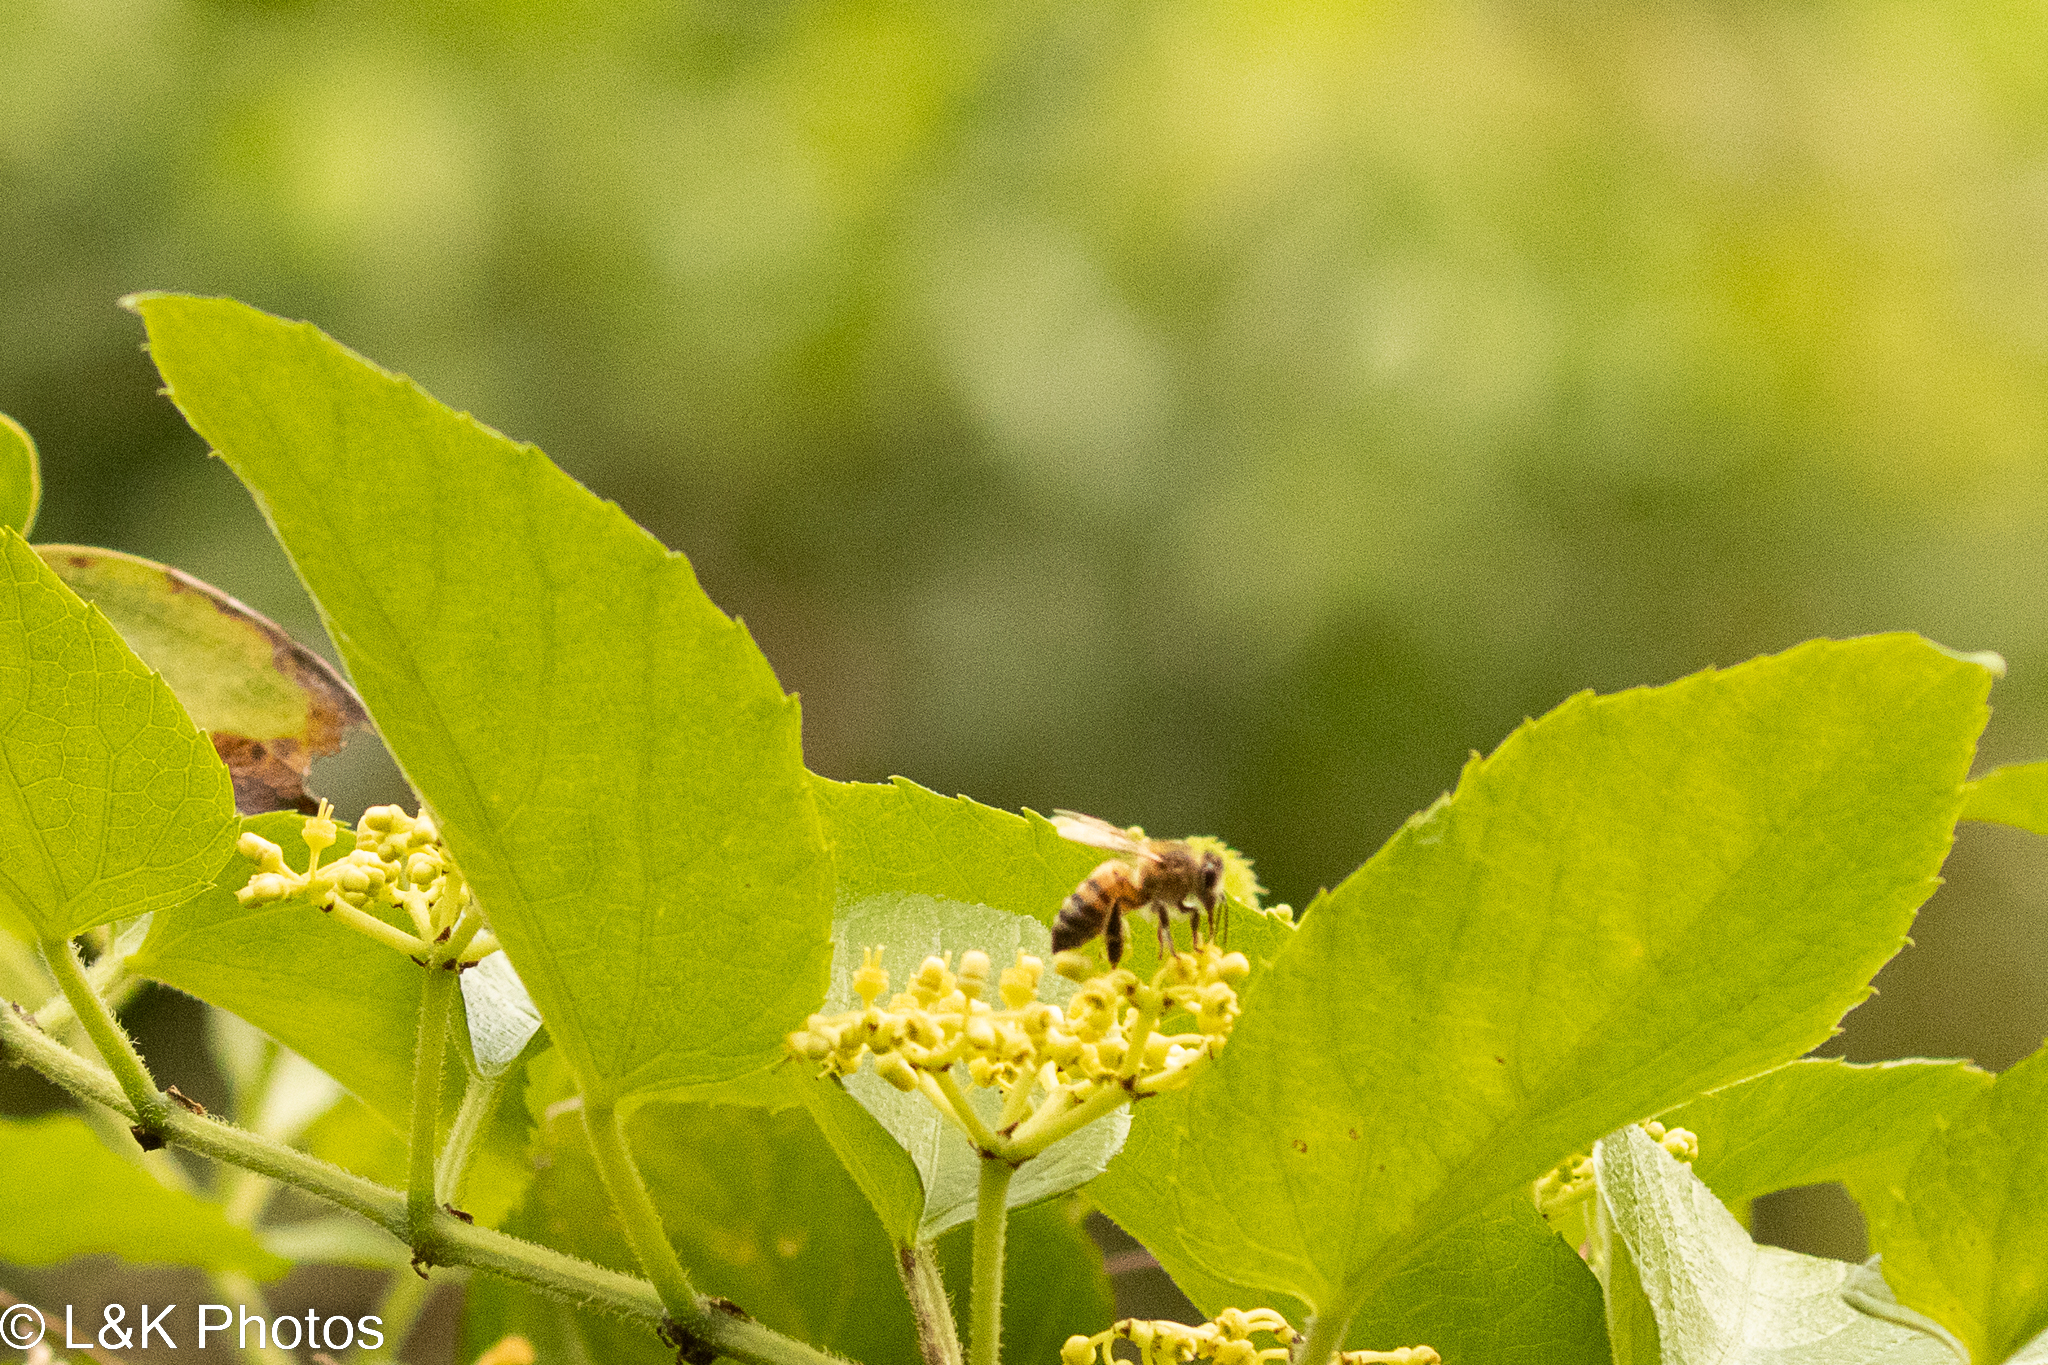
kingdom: Animalia
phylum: Arthropoda
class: Insecta
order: Hymenoptera
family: Apidae
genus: Apis
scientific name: Apis mellifera
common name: Honey bee
